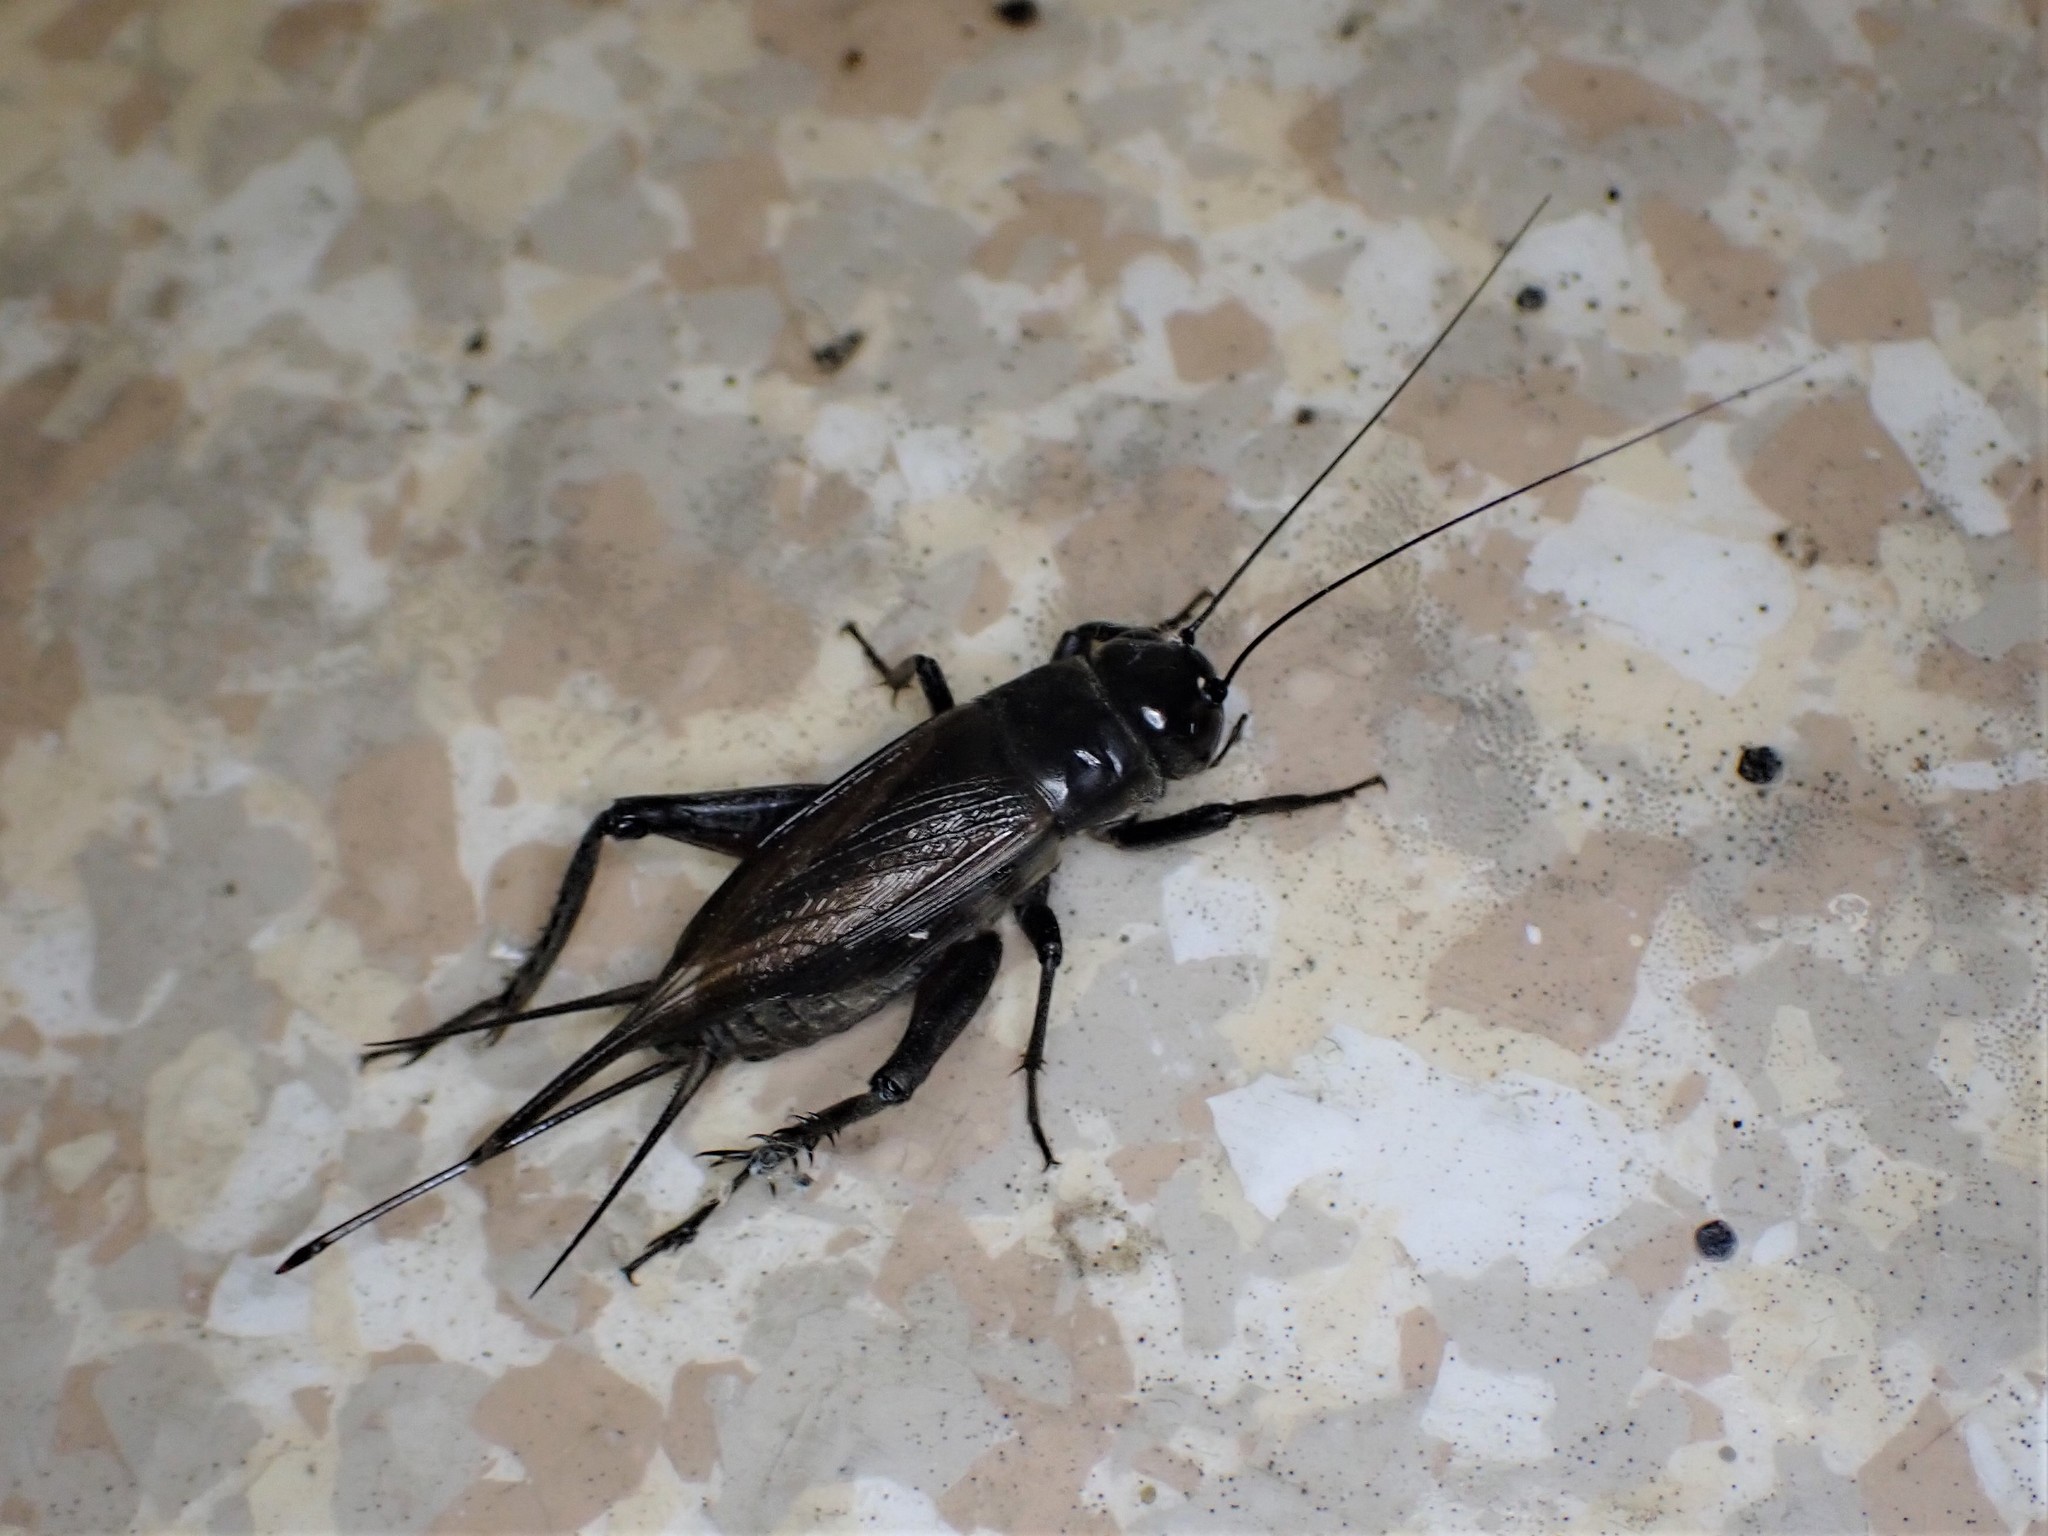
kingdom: Animalia
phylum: Arthropoda
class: Insecta
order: Orthoptera
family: Gryllidae
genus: Teleogryllus
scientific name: Teleogryllus commodus
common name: Black field cricket
